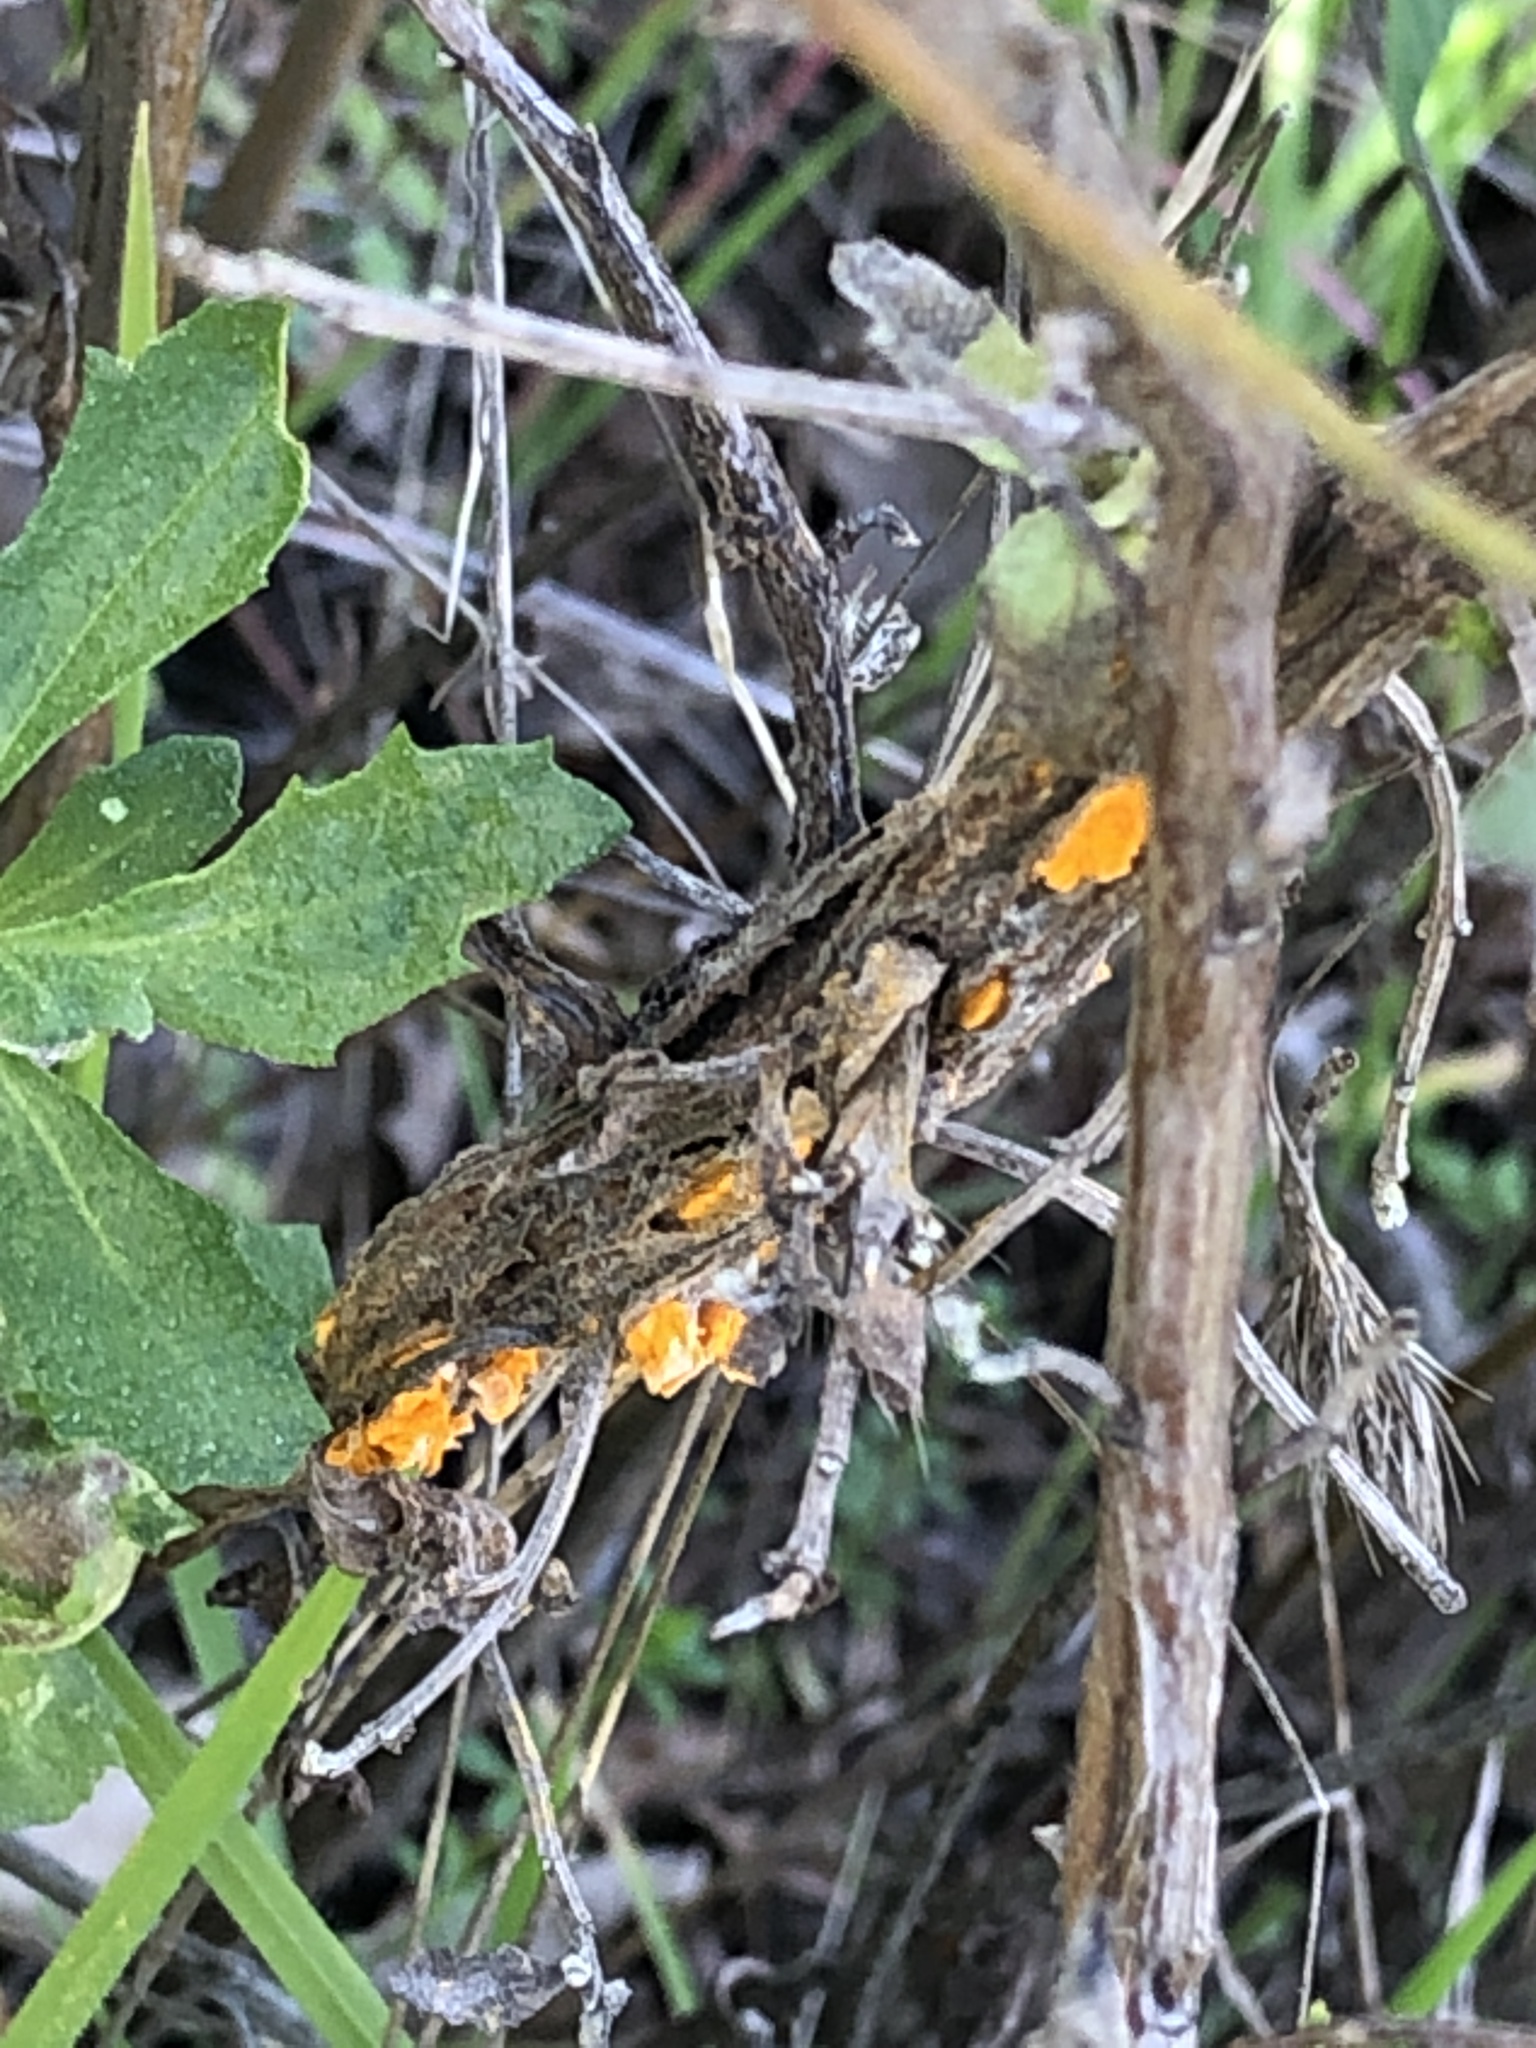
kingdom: Fungi
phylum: Basidiomycota
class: Pucciniomycetes
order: Pucciniales
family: Pucciniaceae
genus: Eriosporangium
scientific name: Eriosporangium evadens
